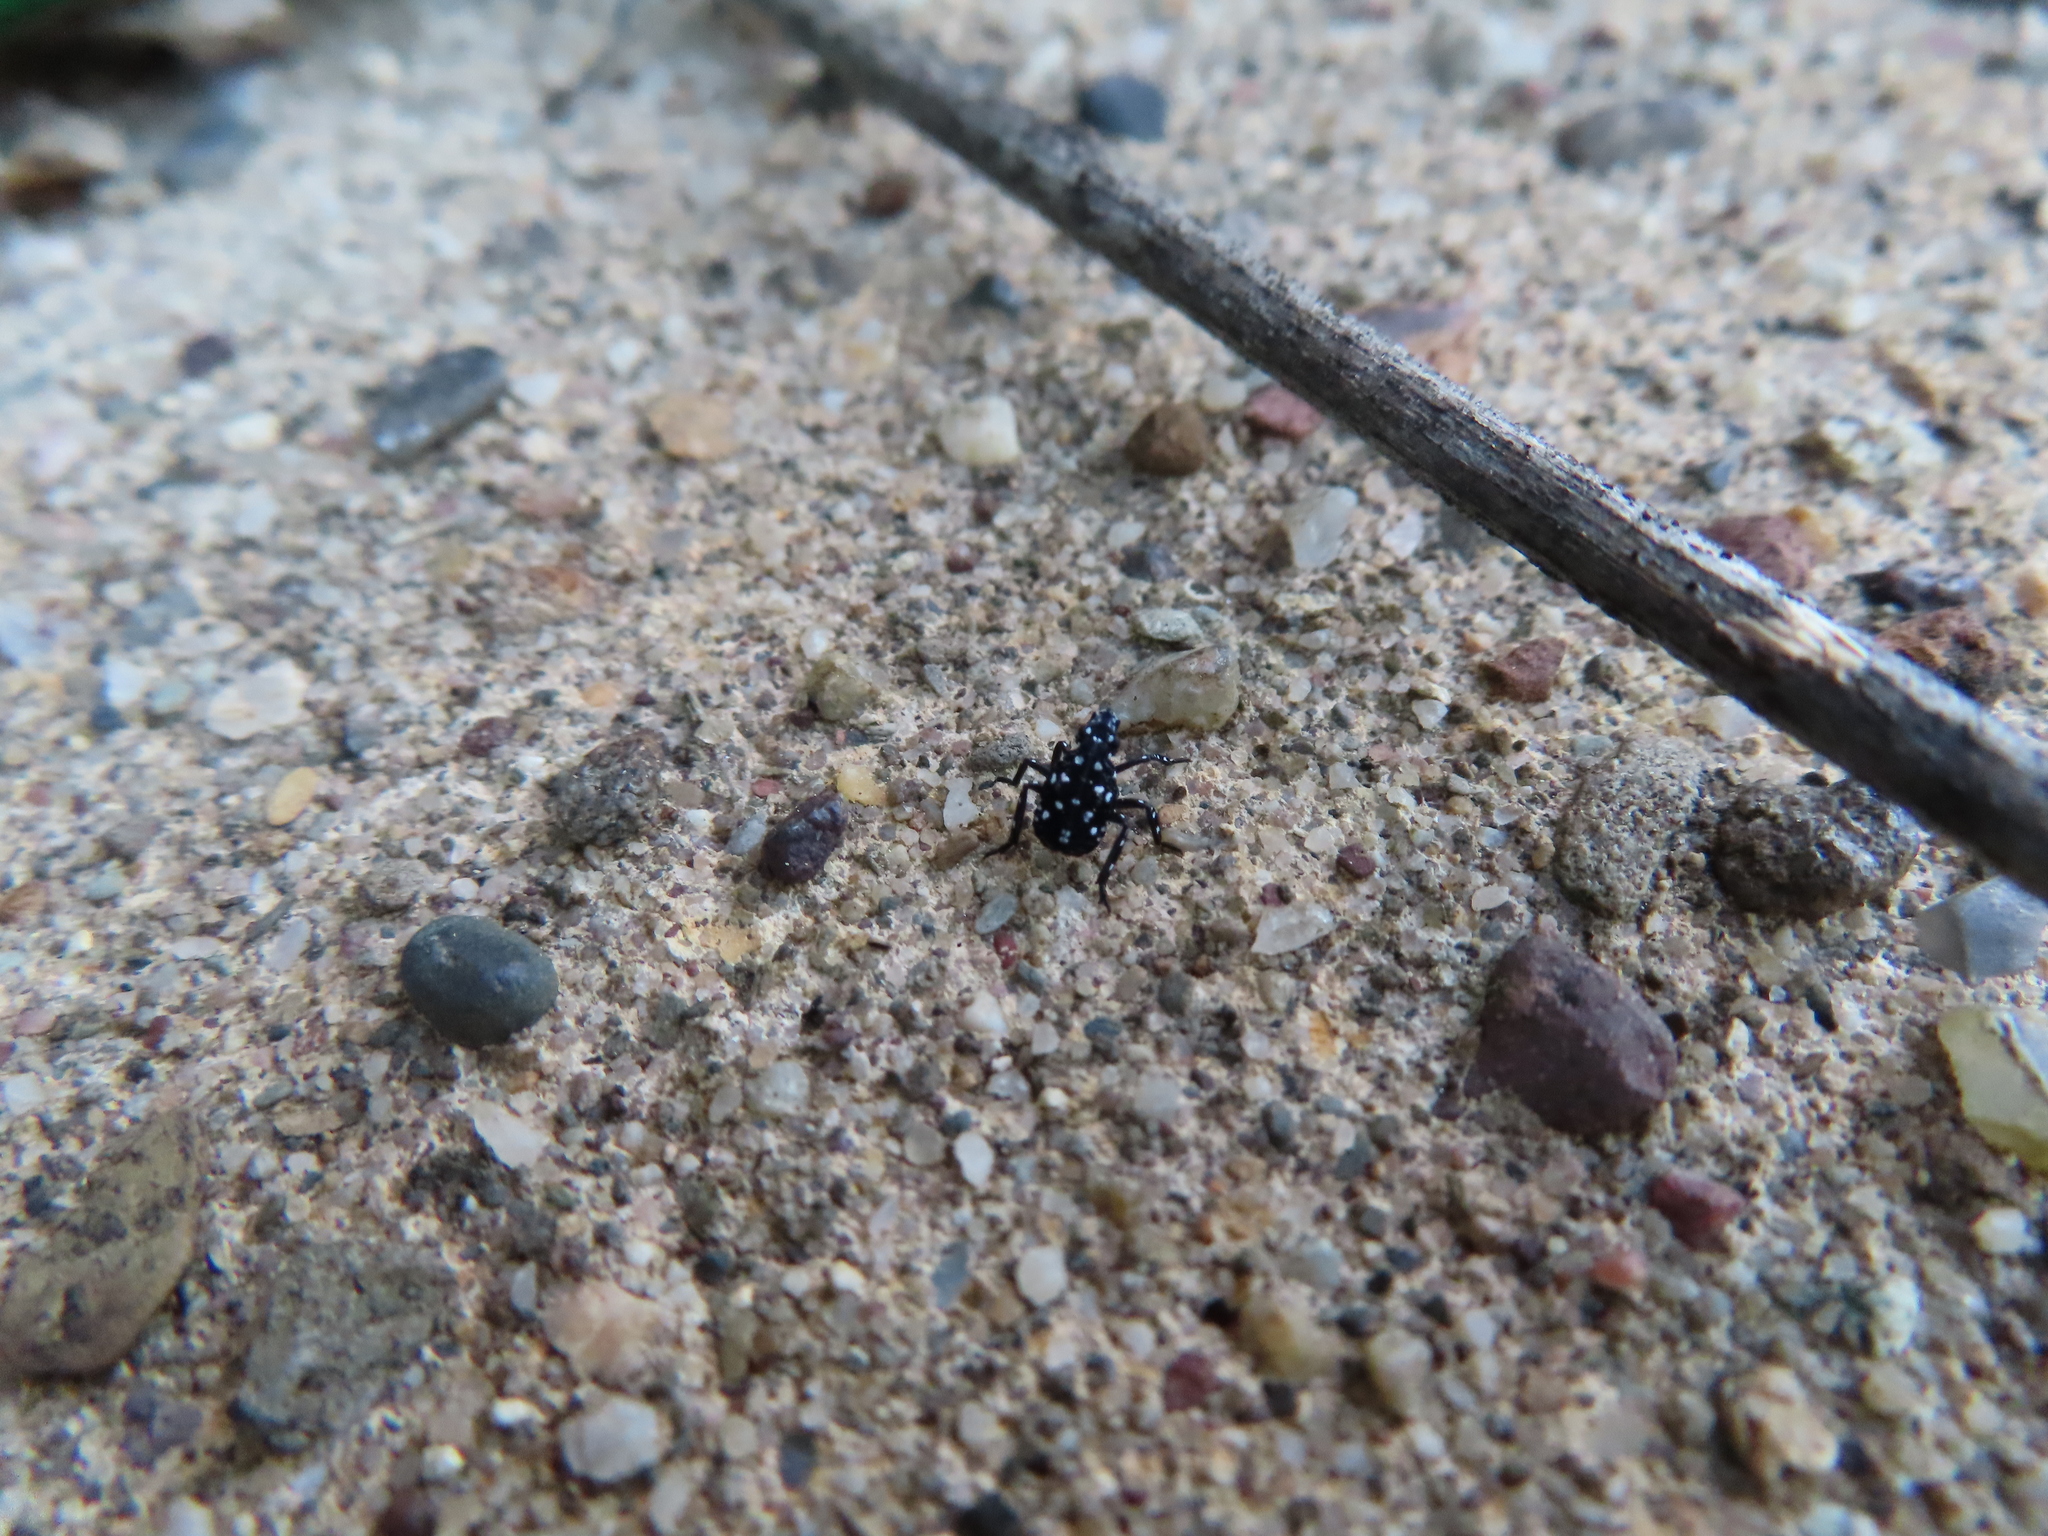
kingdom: Animalia
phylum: Arthropoda
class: Insecta
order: Hemiptera
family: Fulgoridae
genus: Lycorma
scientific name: Lycorma delicatula
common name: Spotted lanternfly
